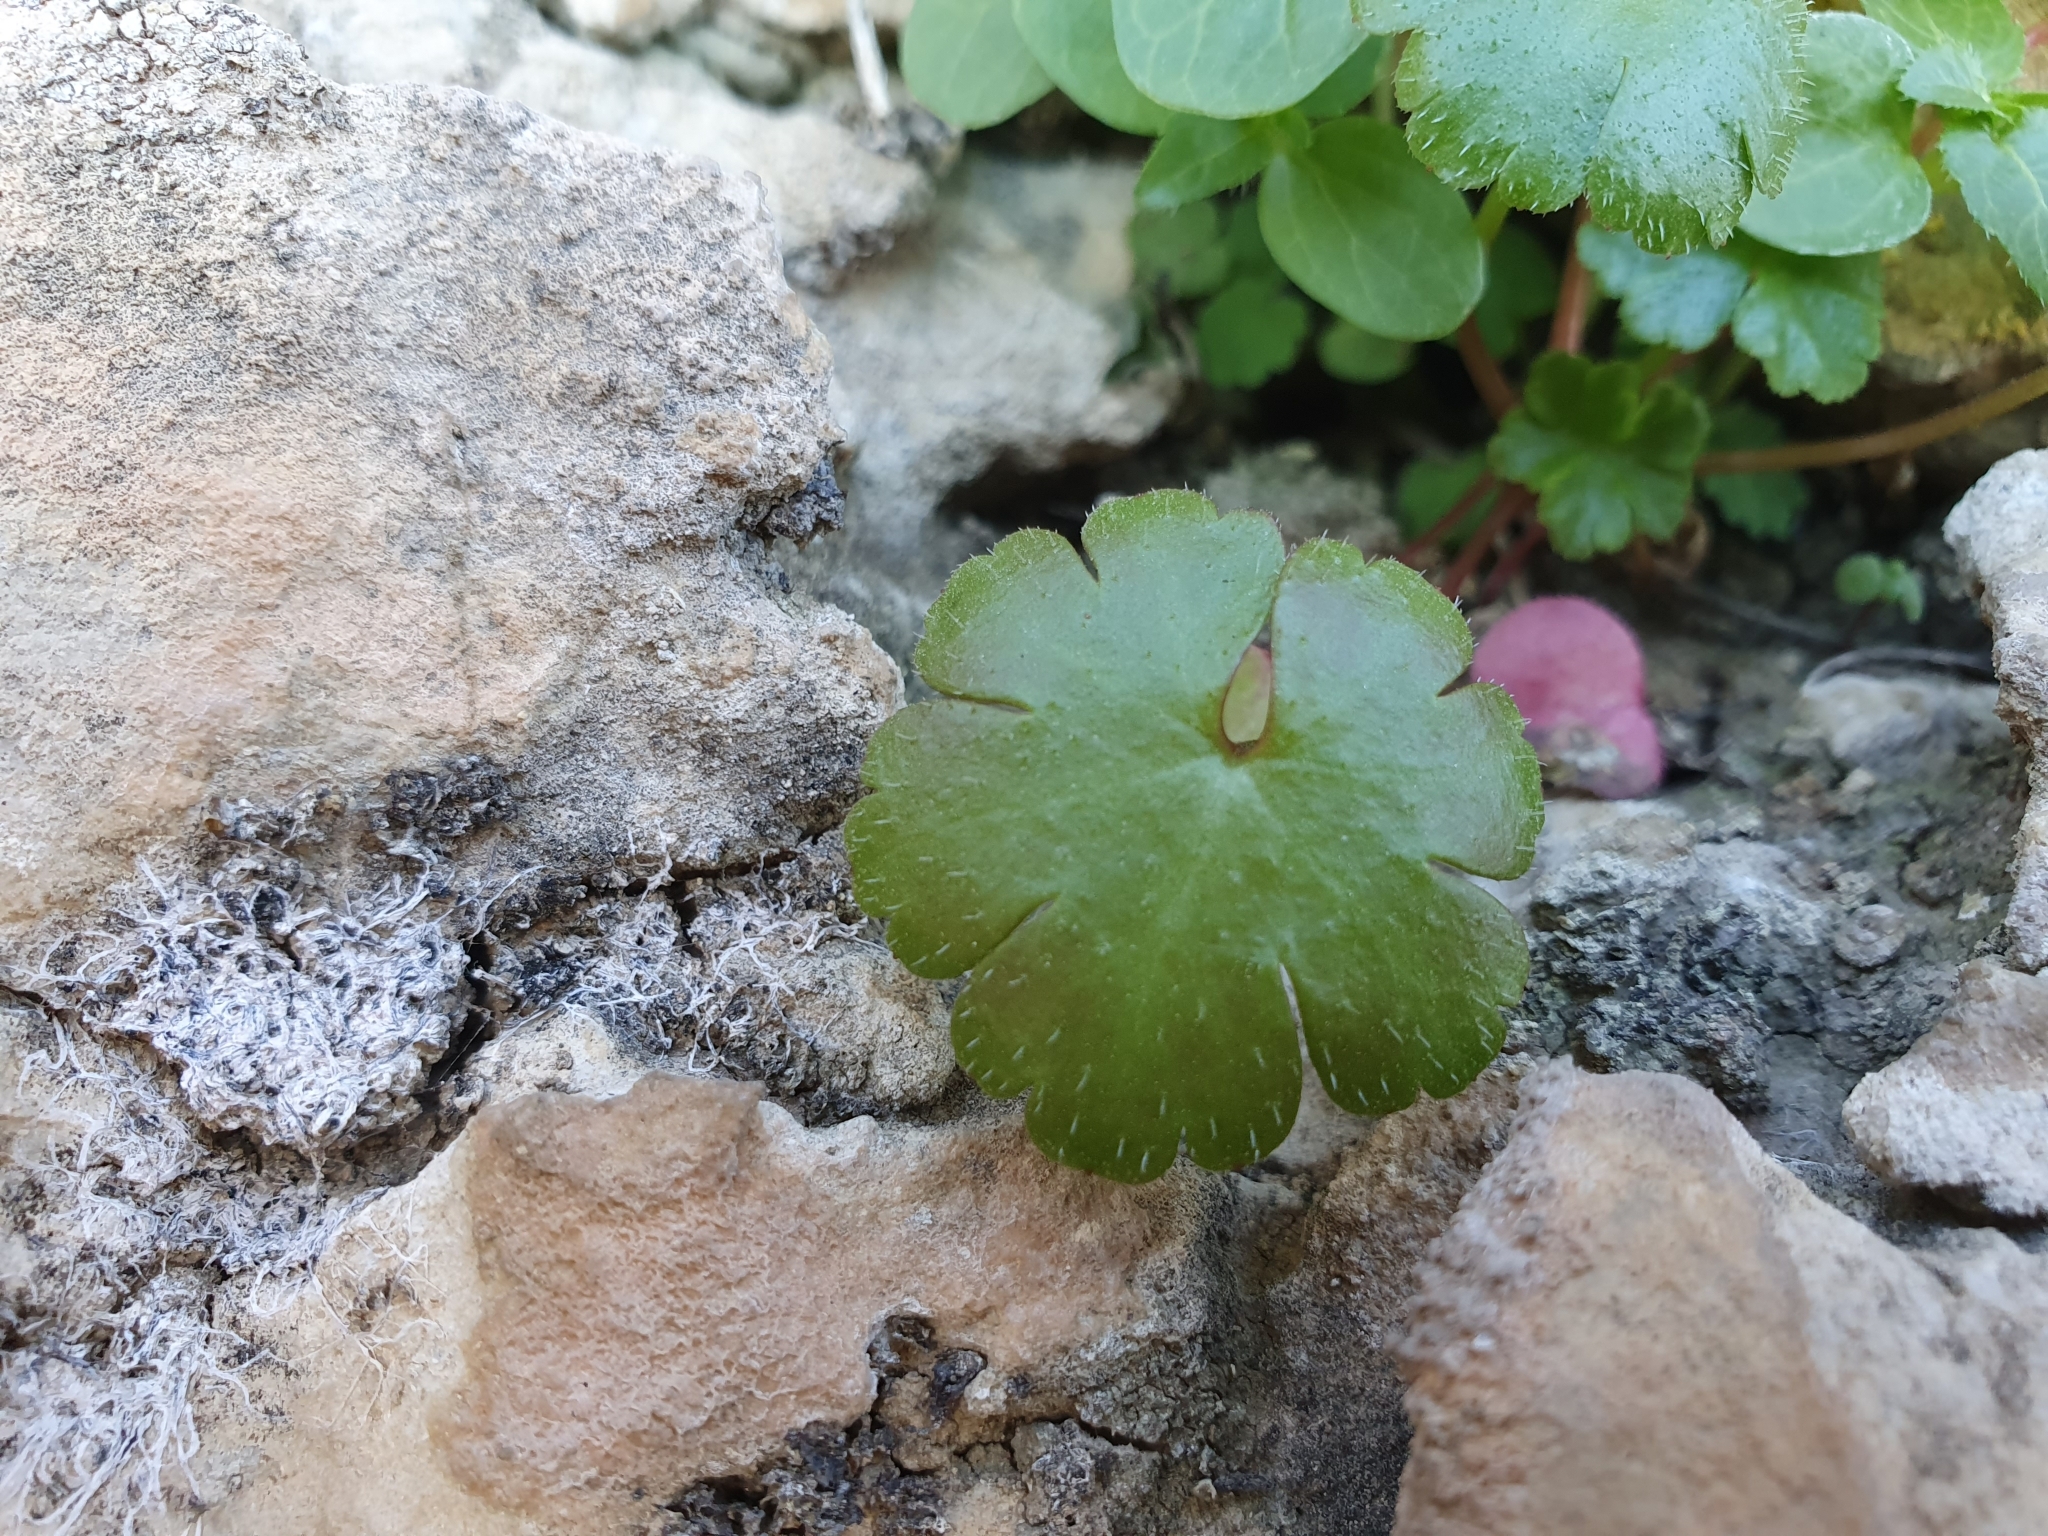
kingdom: Plantae
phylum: Tracheophyta
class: Magnoliopsida
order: Geraniales
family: Geraniaceae
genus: Geranium
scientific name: Geranium lucidum
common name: Shining crane's-bill
